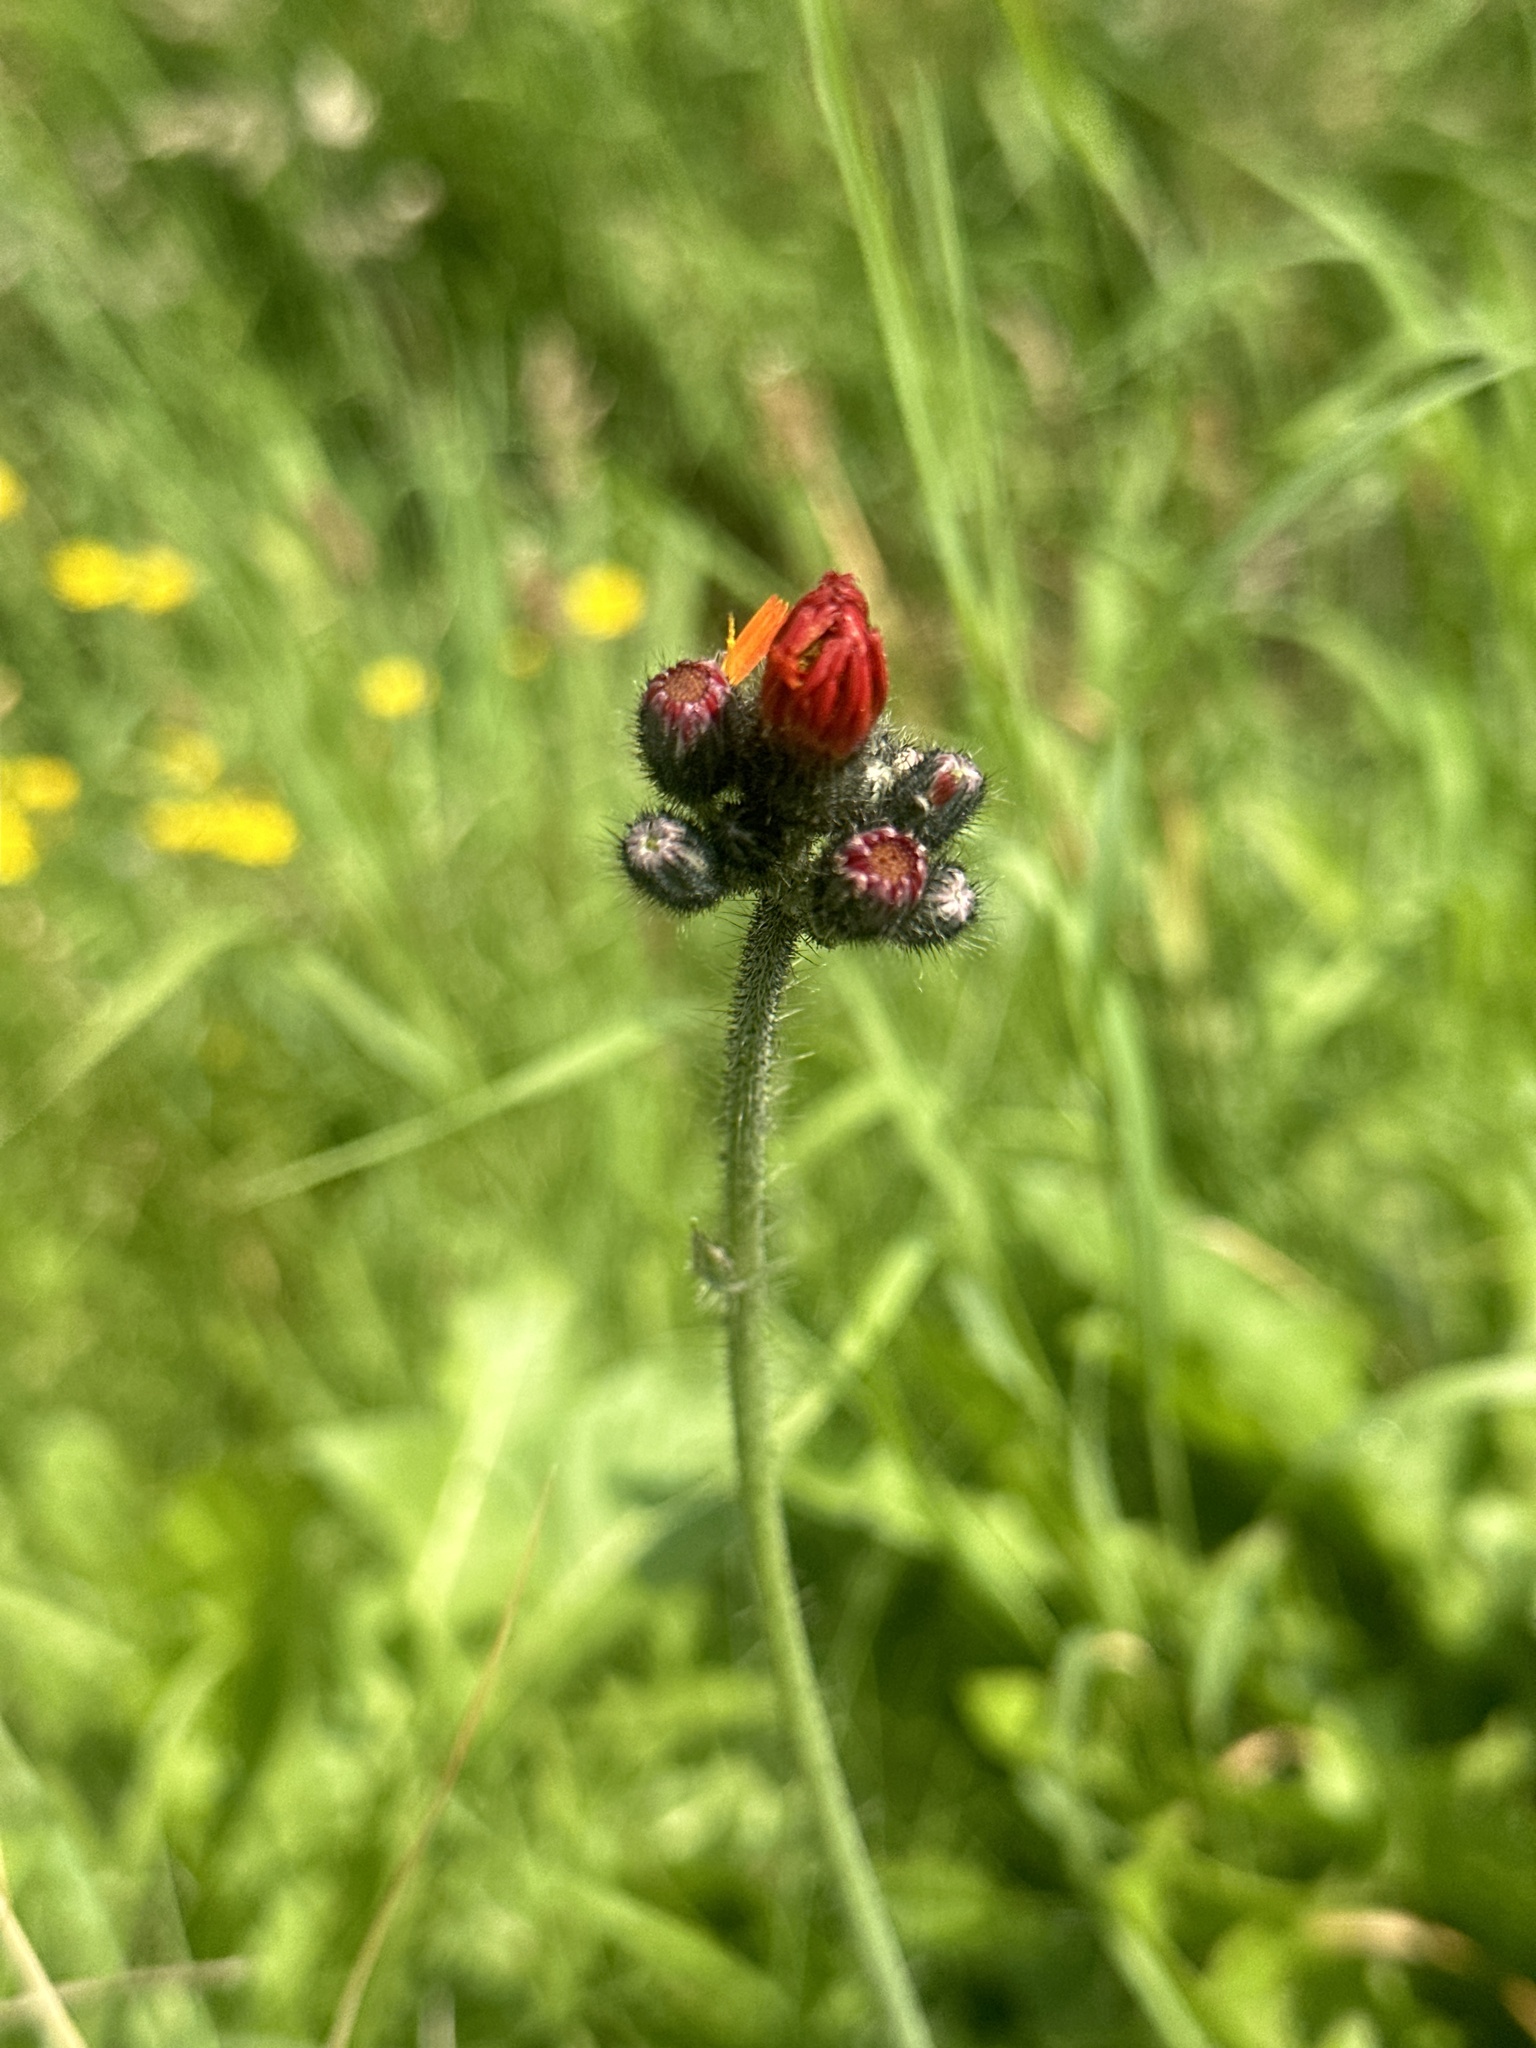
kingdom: Plantae
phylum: Tracheophyta
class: Magnoliopsida
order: Asterales
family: Asteraceae
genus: Pilosella
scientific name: Pilosella aurantiaca
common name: Fox-and-cubs
